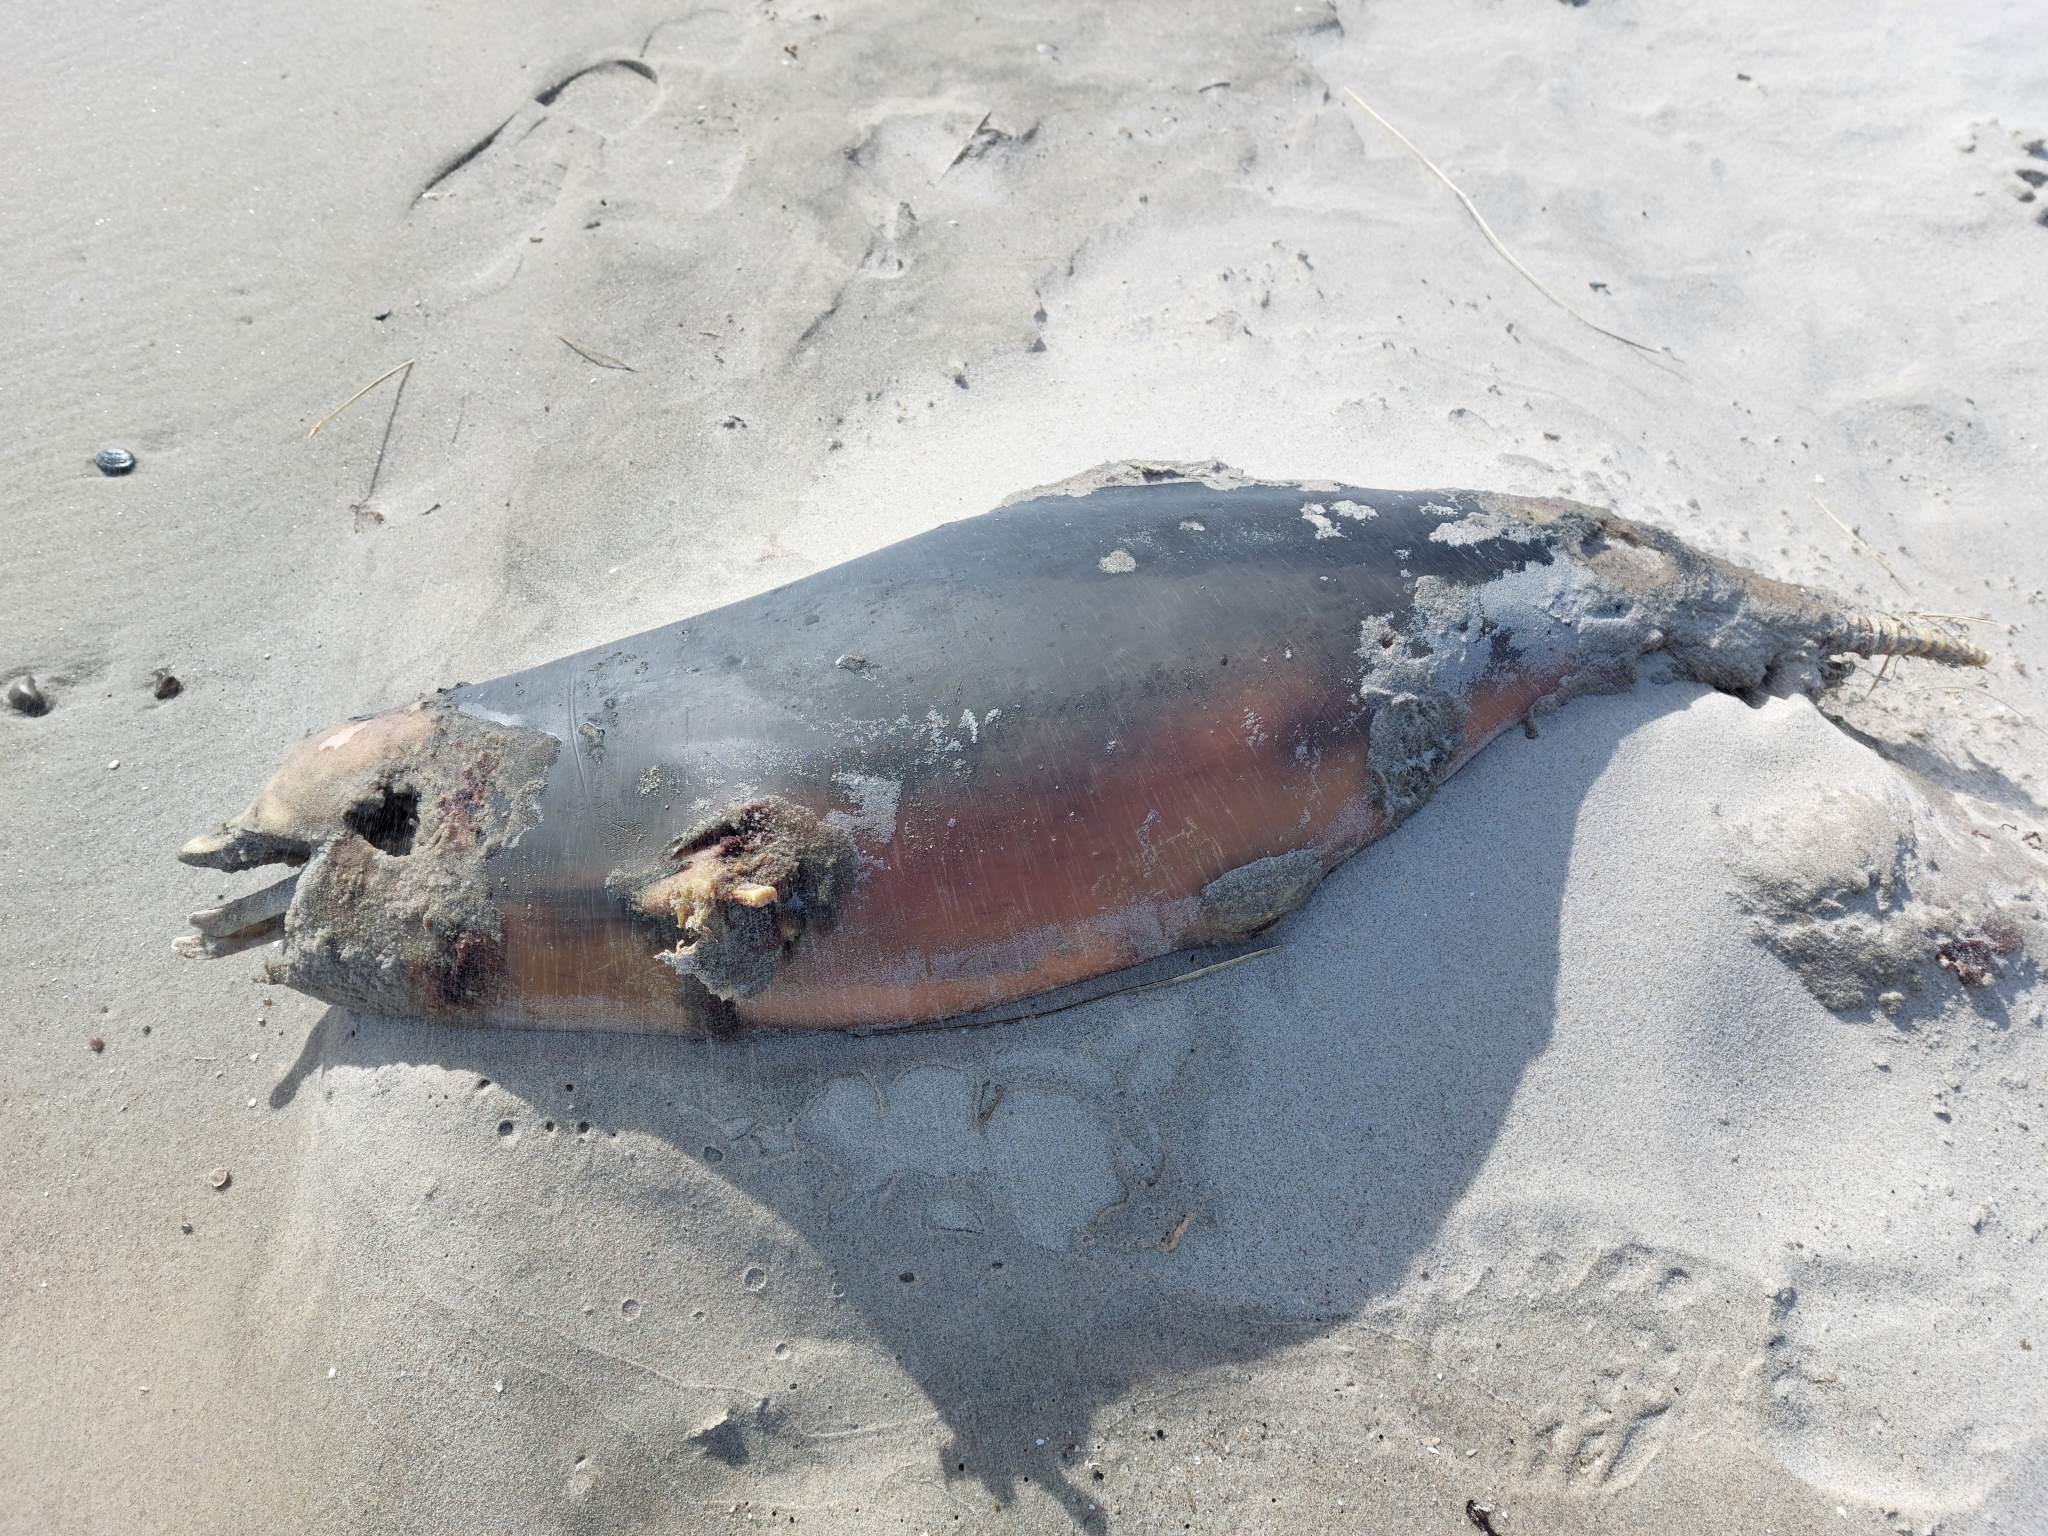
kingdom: Animalia
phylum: Chordata
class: Mammalia
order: Cetacea
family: Phocoenidae
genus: Phocoena
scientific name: Phocoena phocoena
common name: Harbor porpoise
